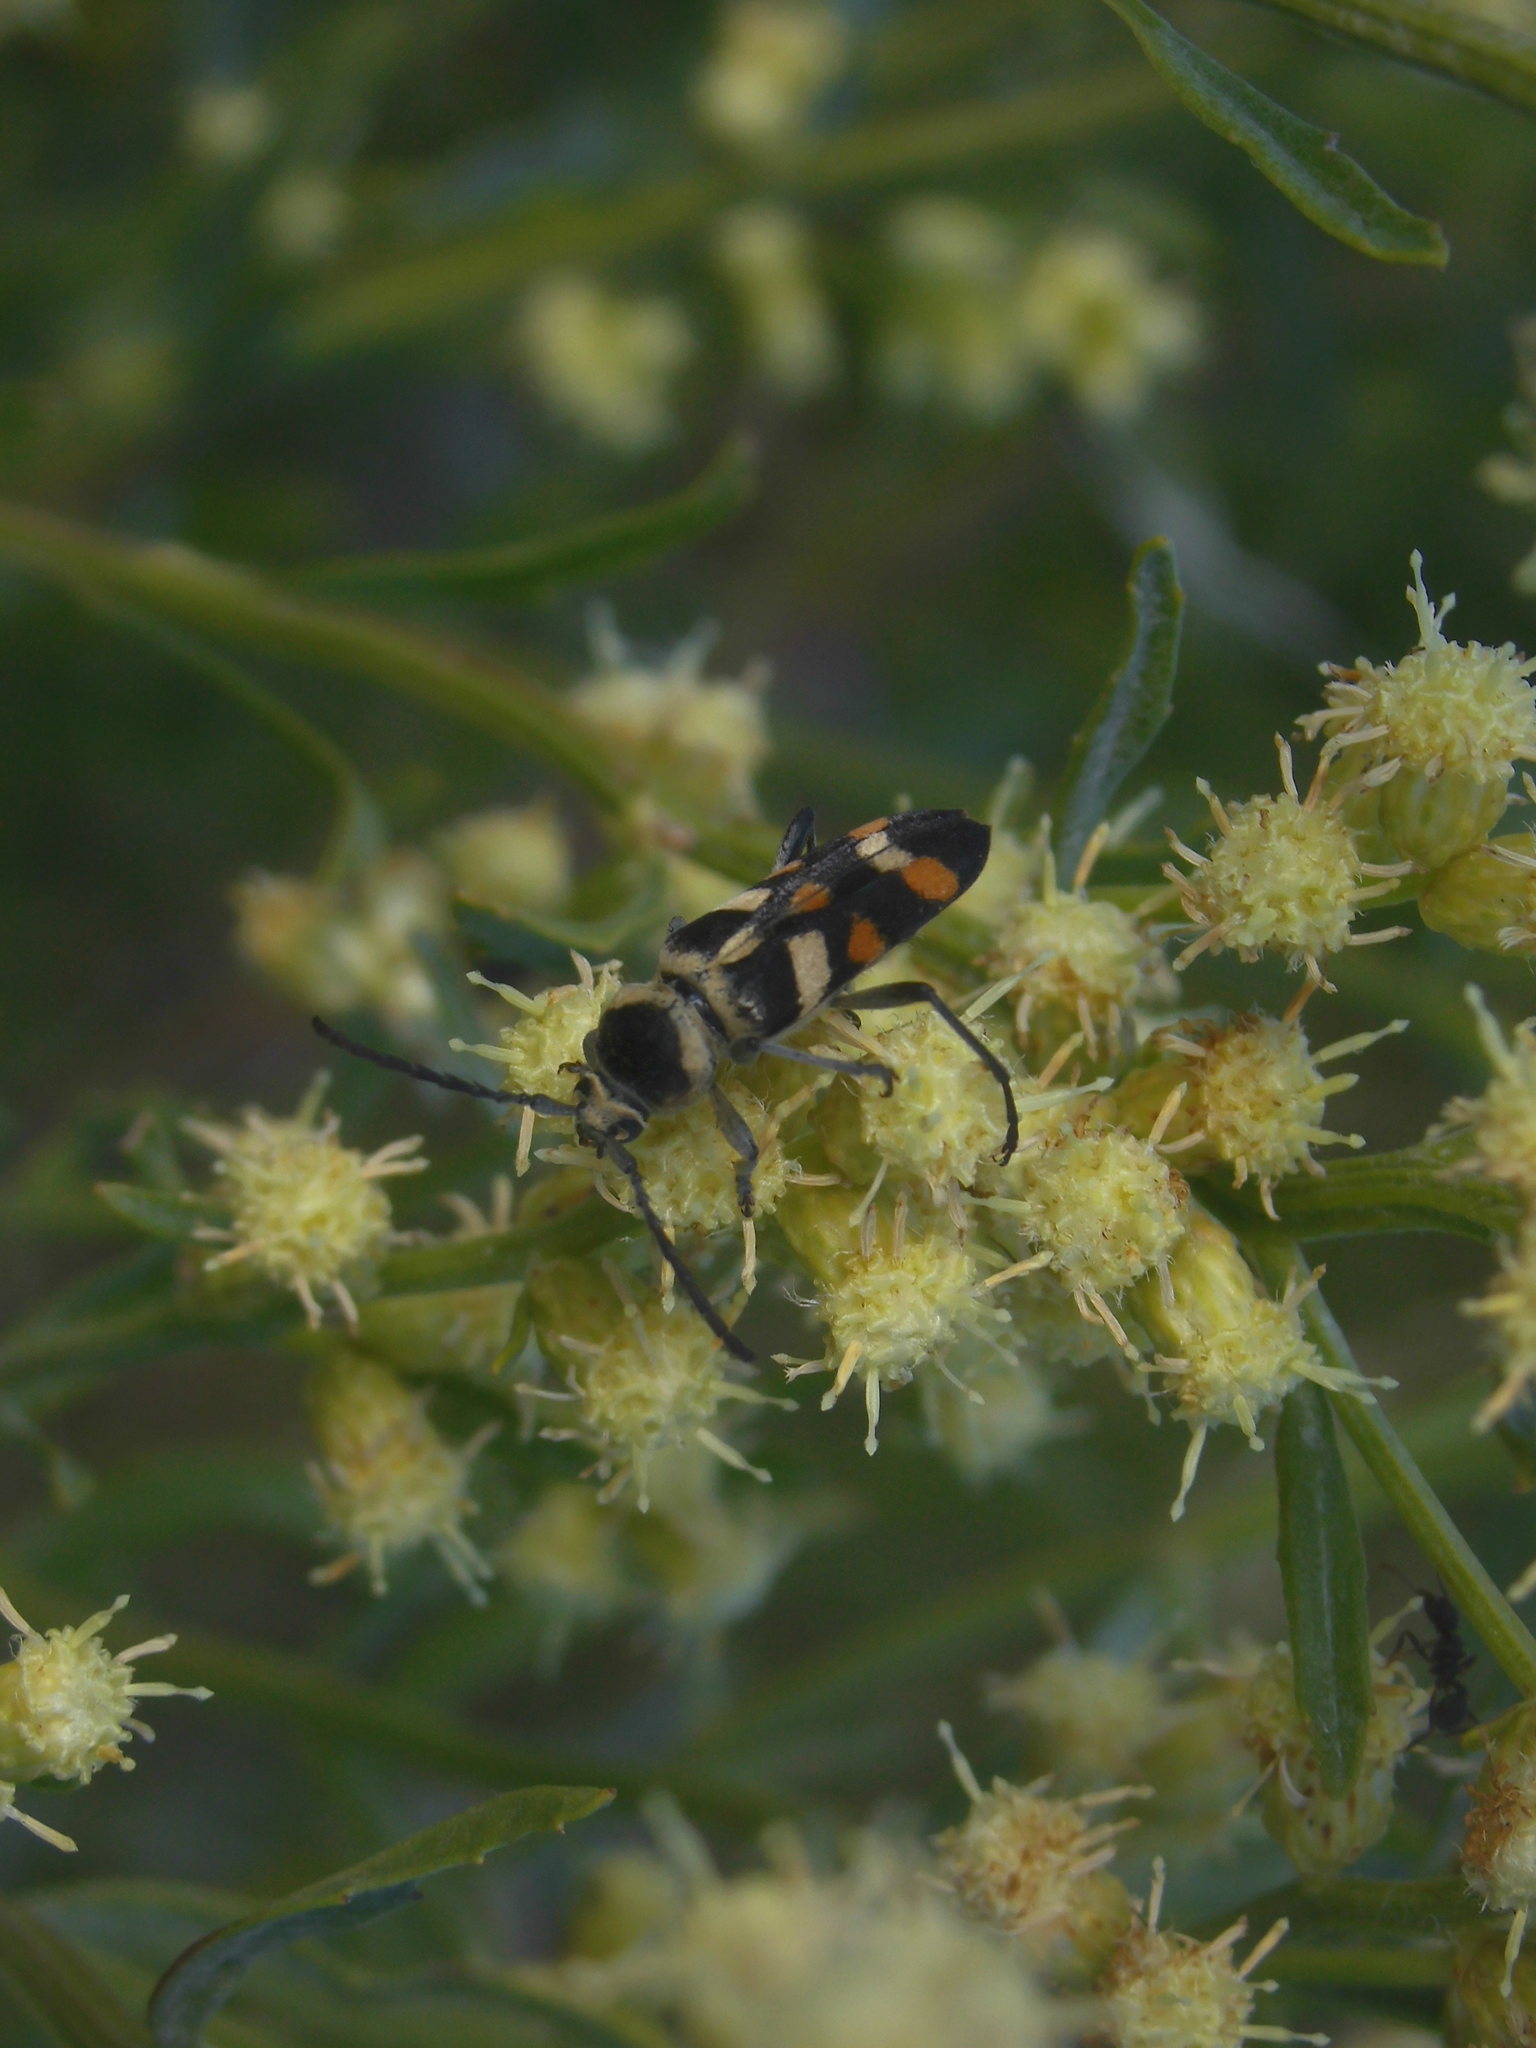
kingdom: Animalia
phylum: Arthropoda
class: Insecta
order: Coleoptera
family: Cerambycidae
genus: Megacyllene
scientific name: Megacyllene mellyi
